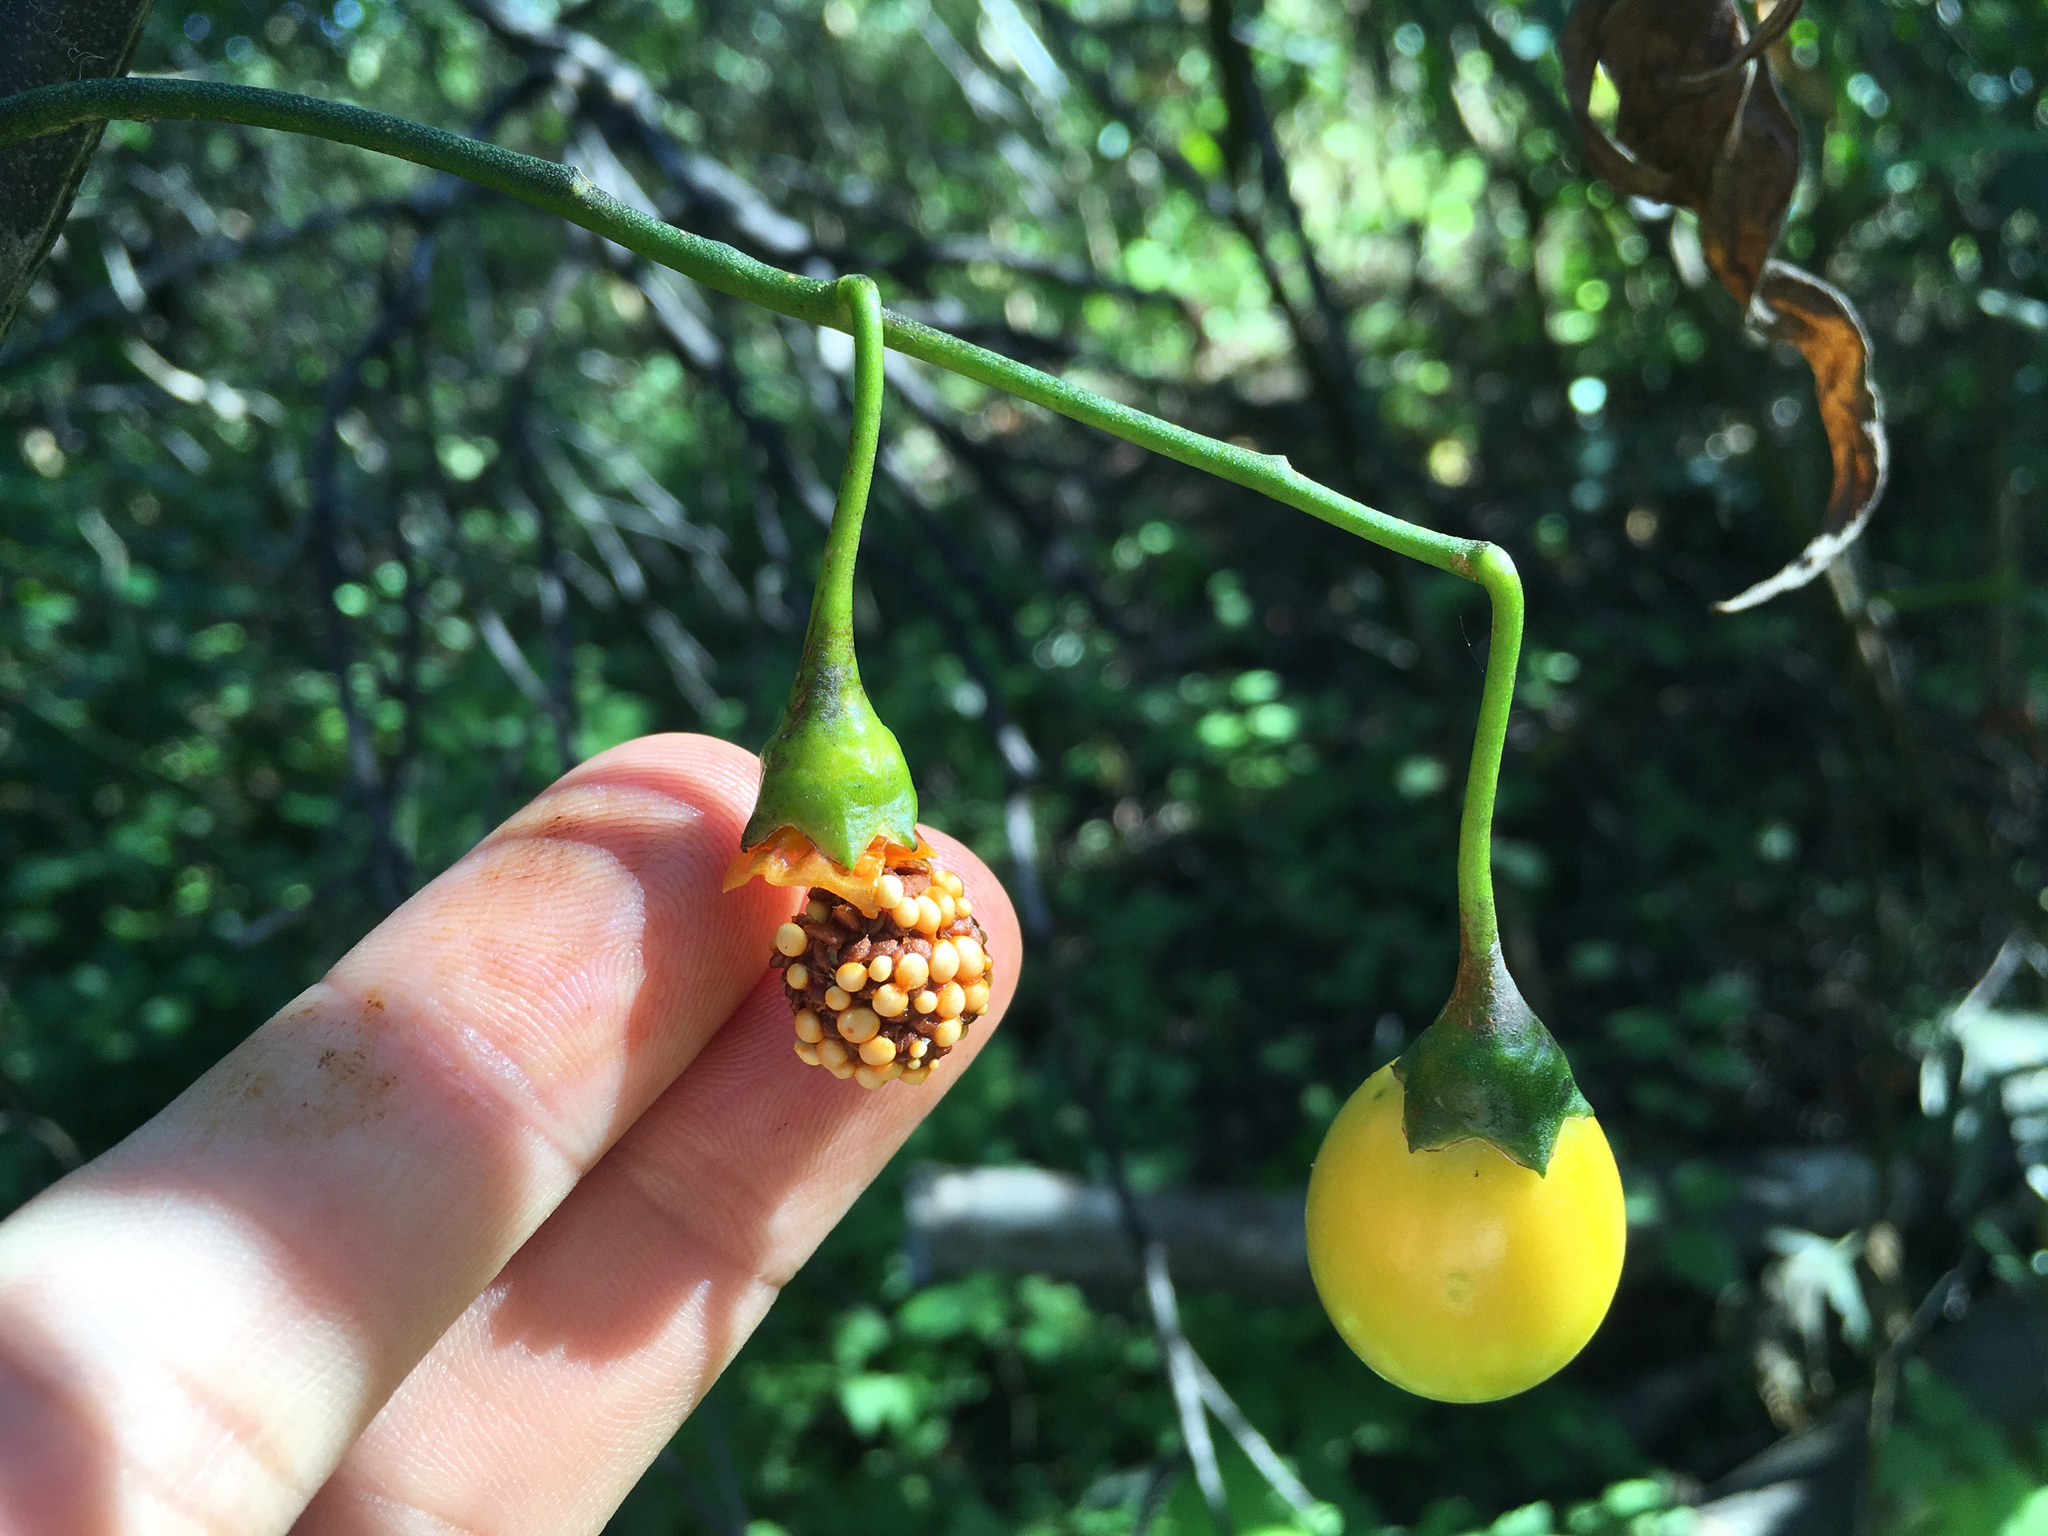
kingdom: Plantae
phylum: Tracheophyta
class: Magnoliopsida
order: Solanales
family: Solanaceae
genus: Solanum
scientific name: Solanum laciniatum
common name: Kangaroo-apple
